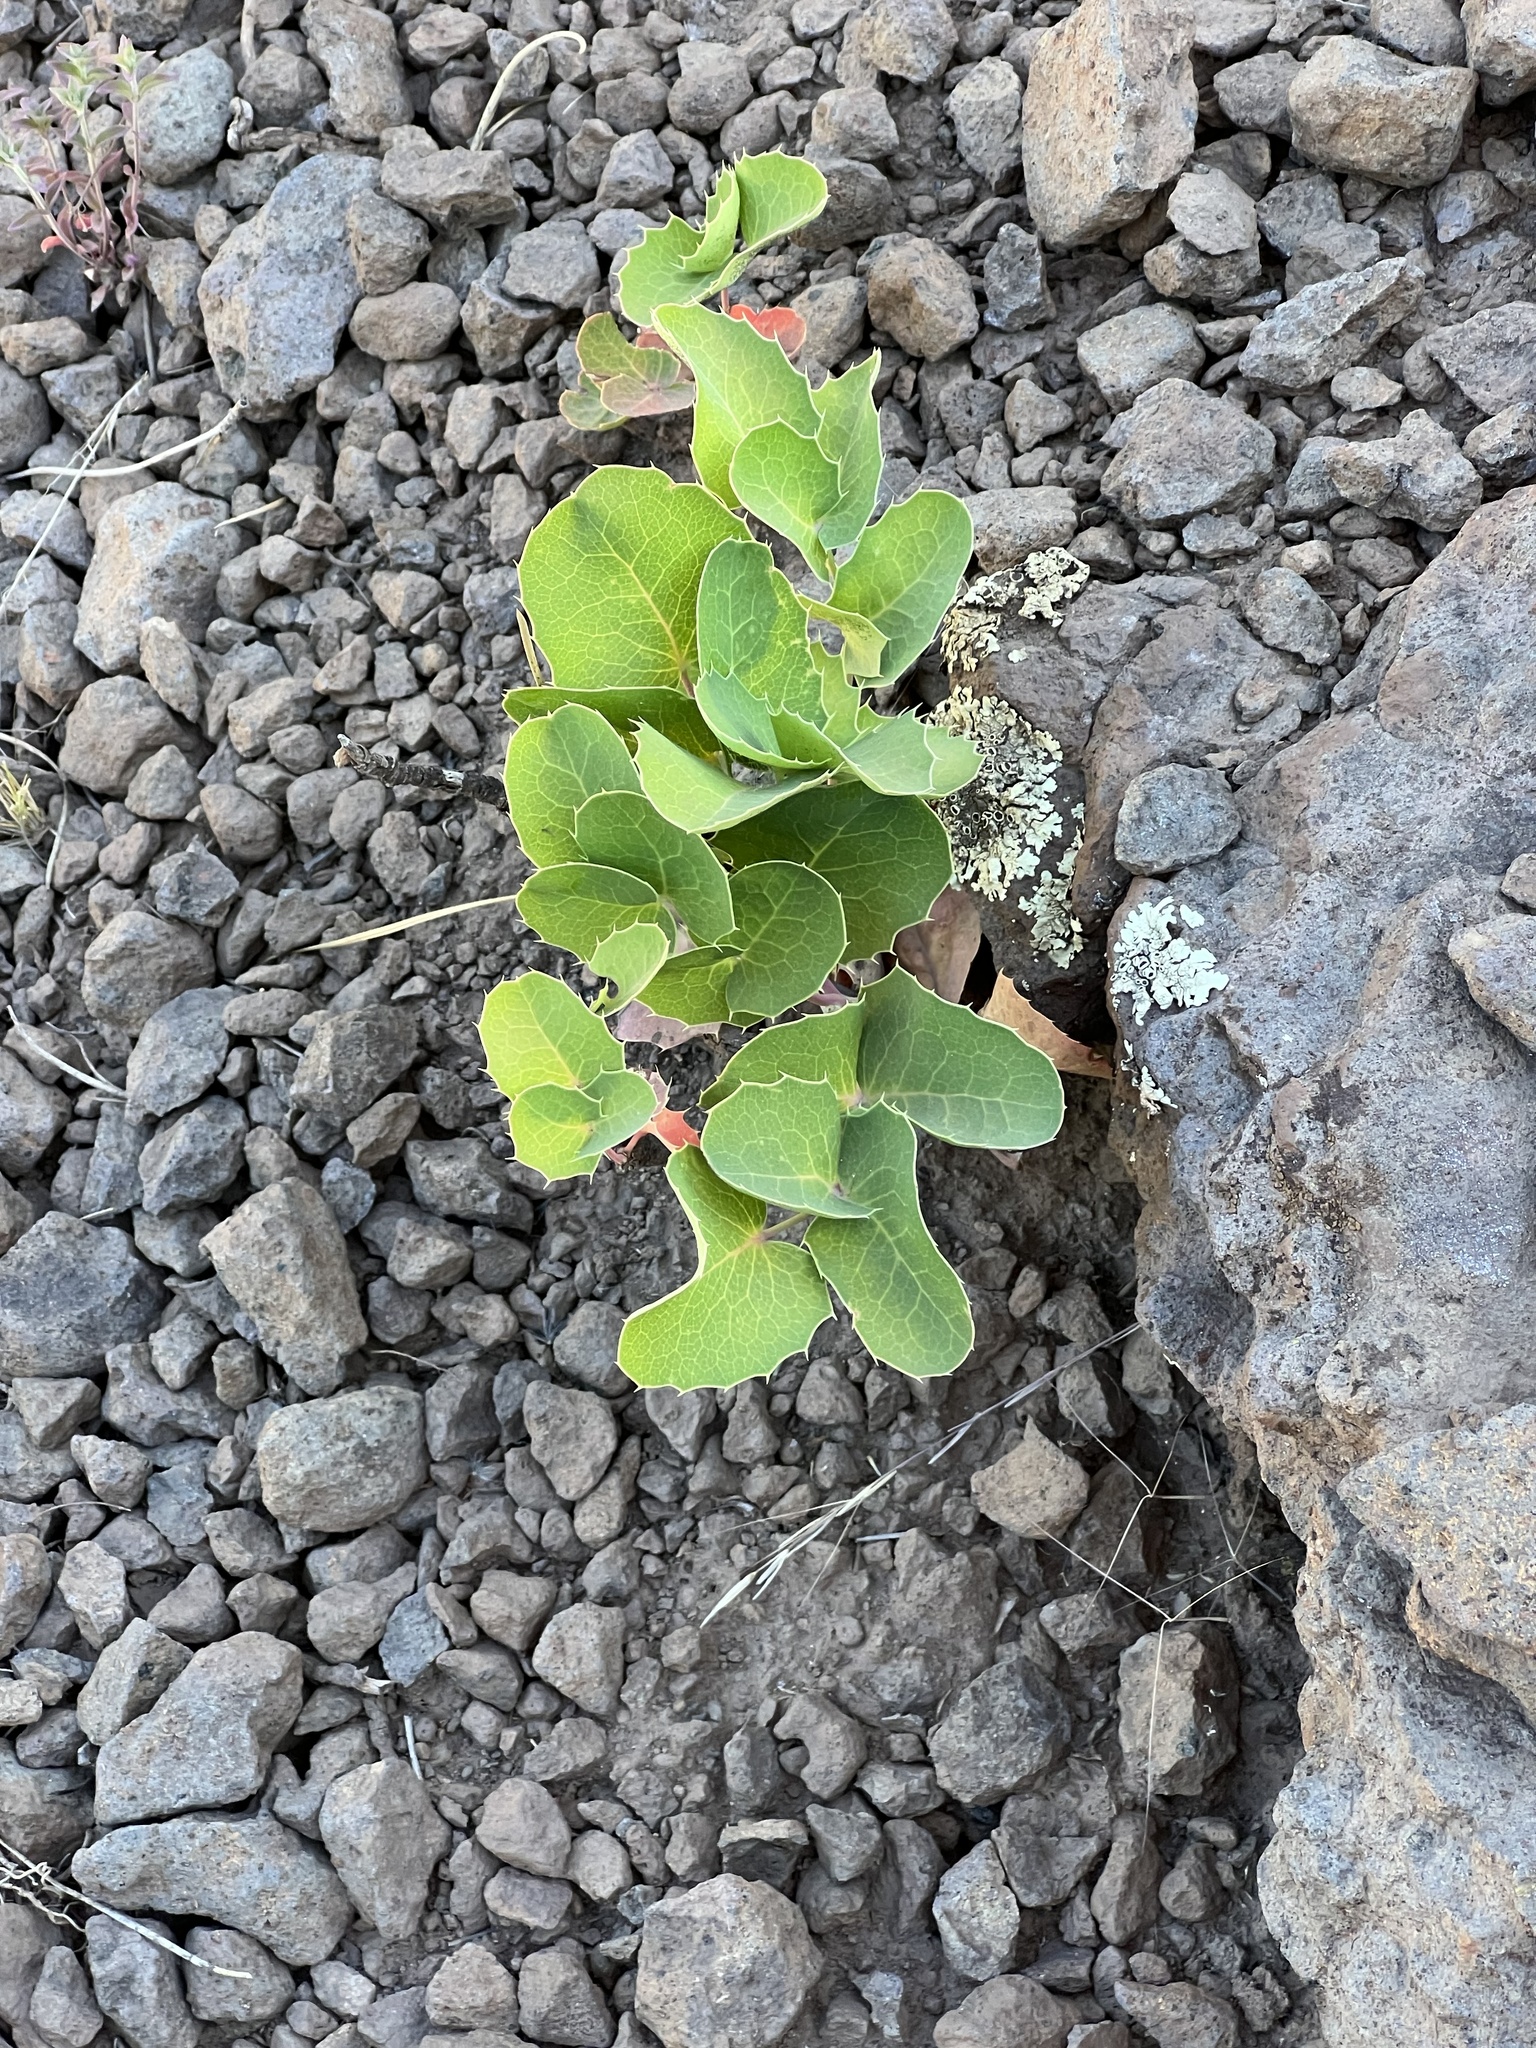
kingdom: Plantae
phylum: Tracheophyta
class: Magnoliopsida
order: Ranunculales
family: Berberidaceae
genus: Mahonia
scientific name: Mahonia repens
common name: Creeping oregon-grape
